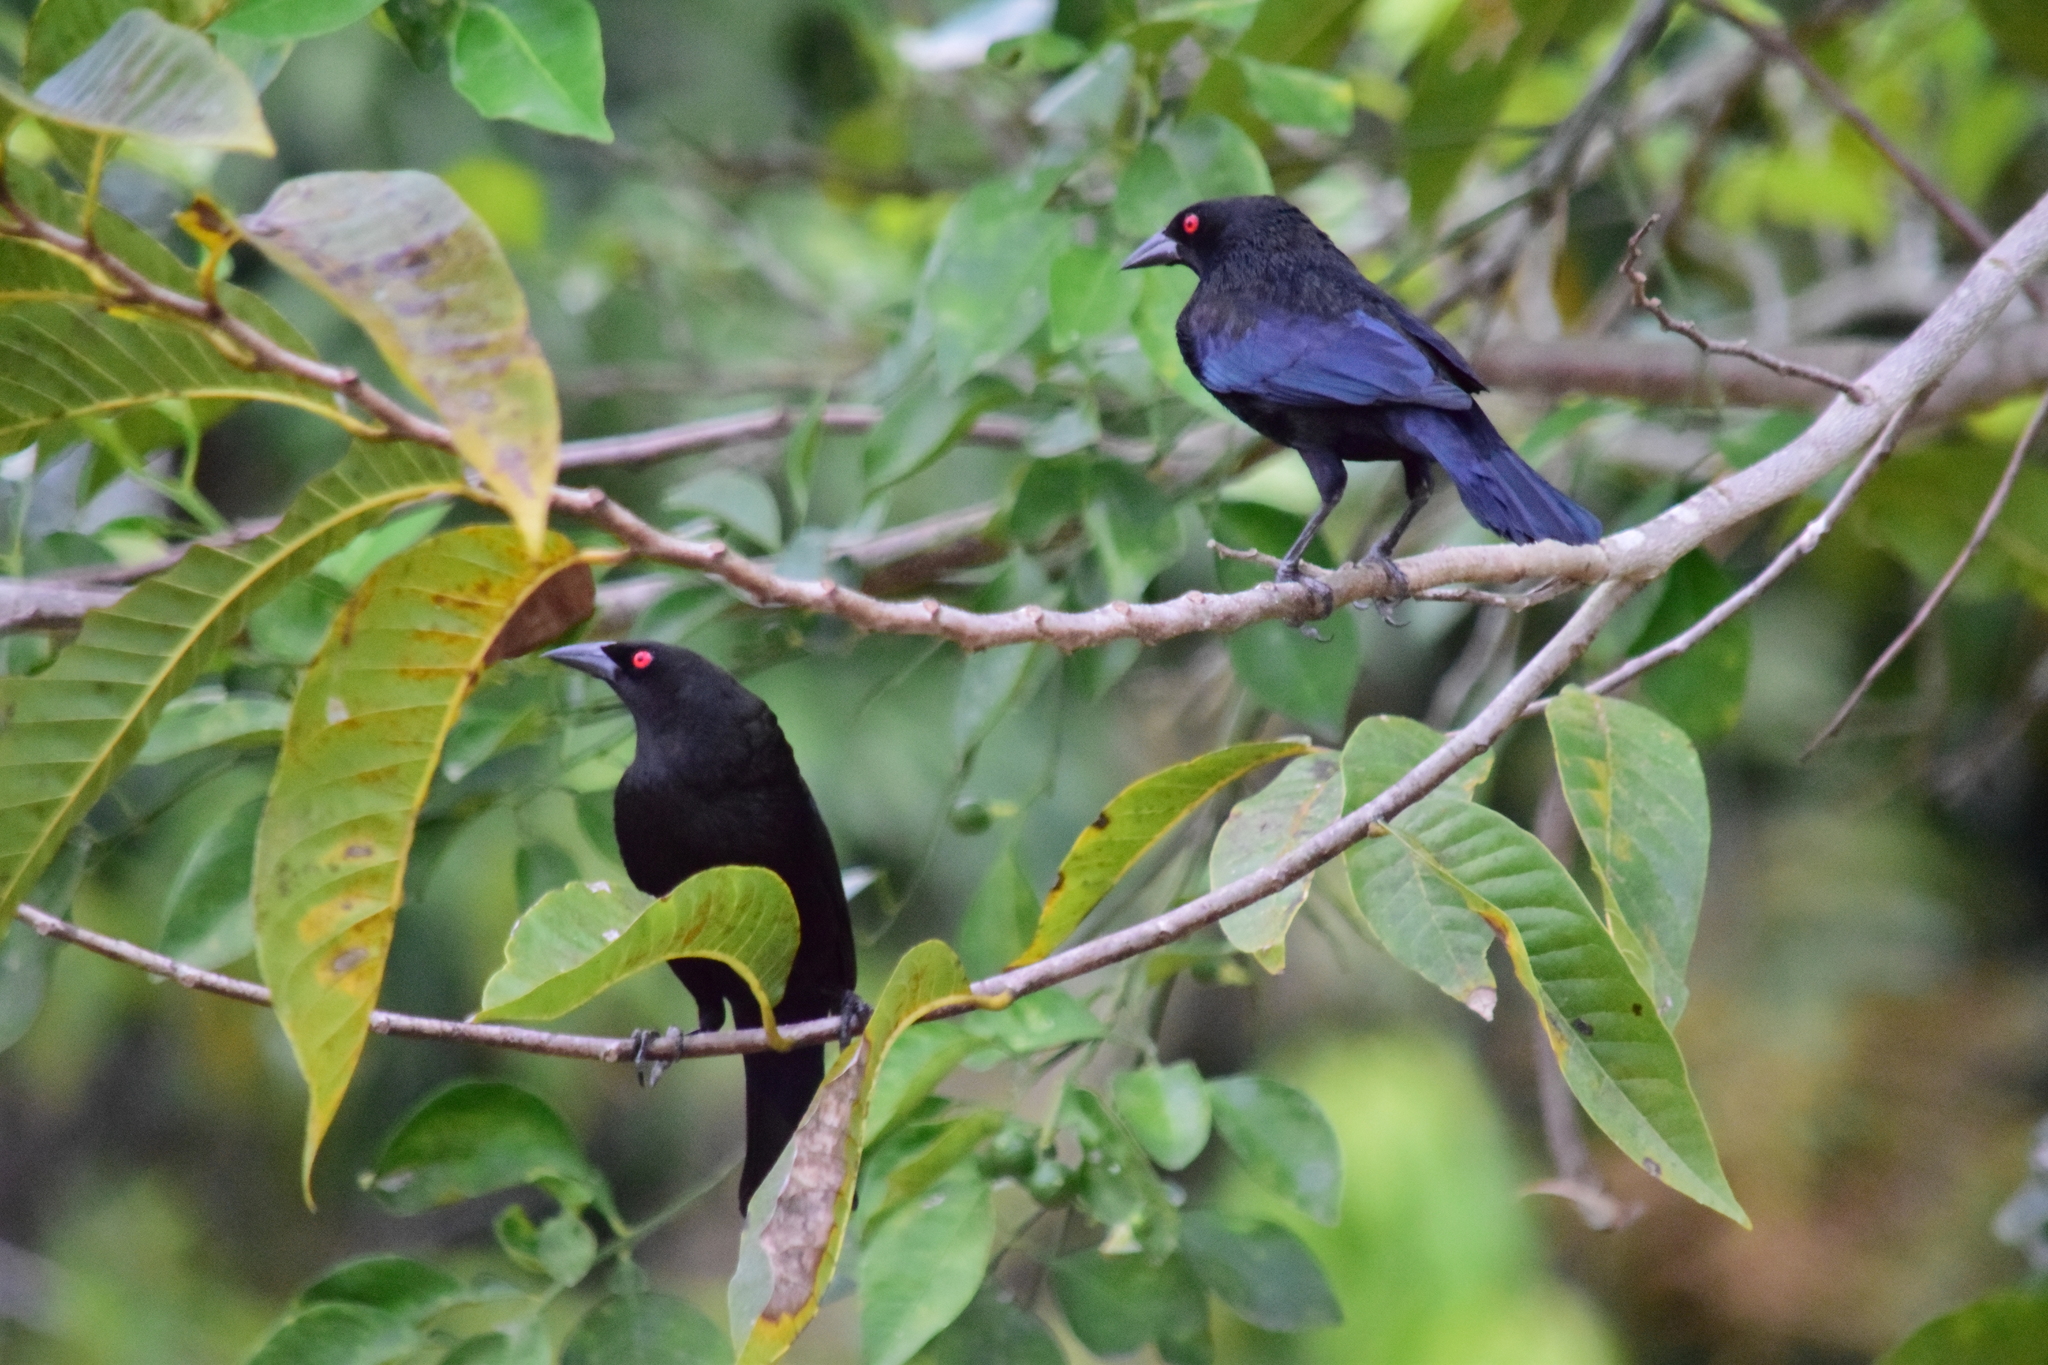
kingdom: Animalia
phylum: Chordata
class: Aves
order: Passeriformes
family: Icteridae
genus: Molothrus
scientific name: Molothrus aeneus
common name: Bronzed cowbird
